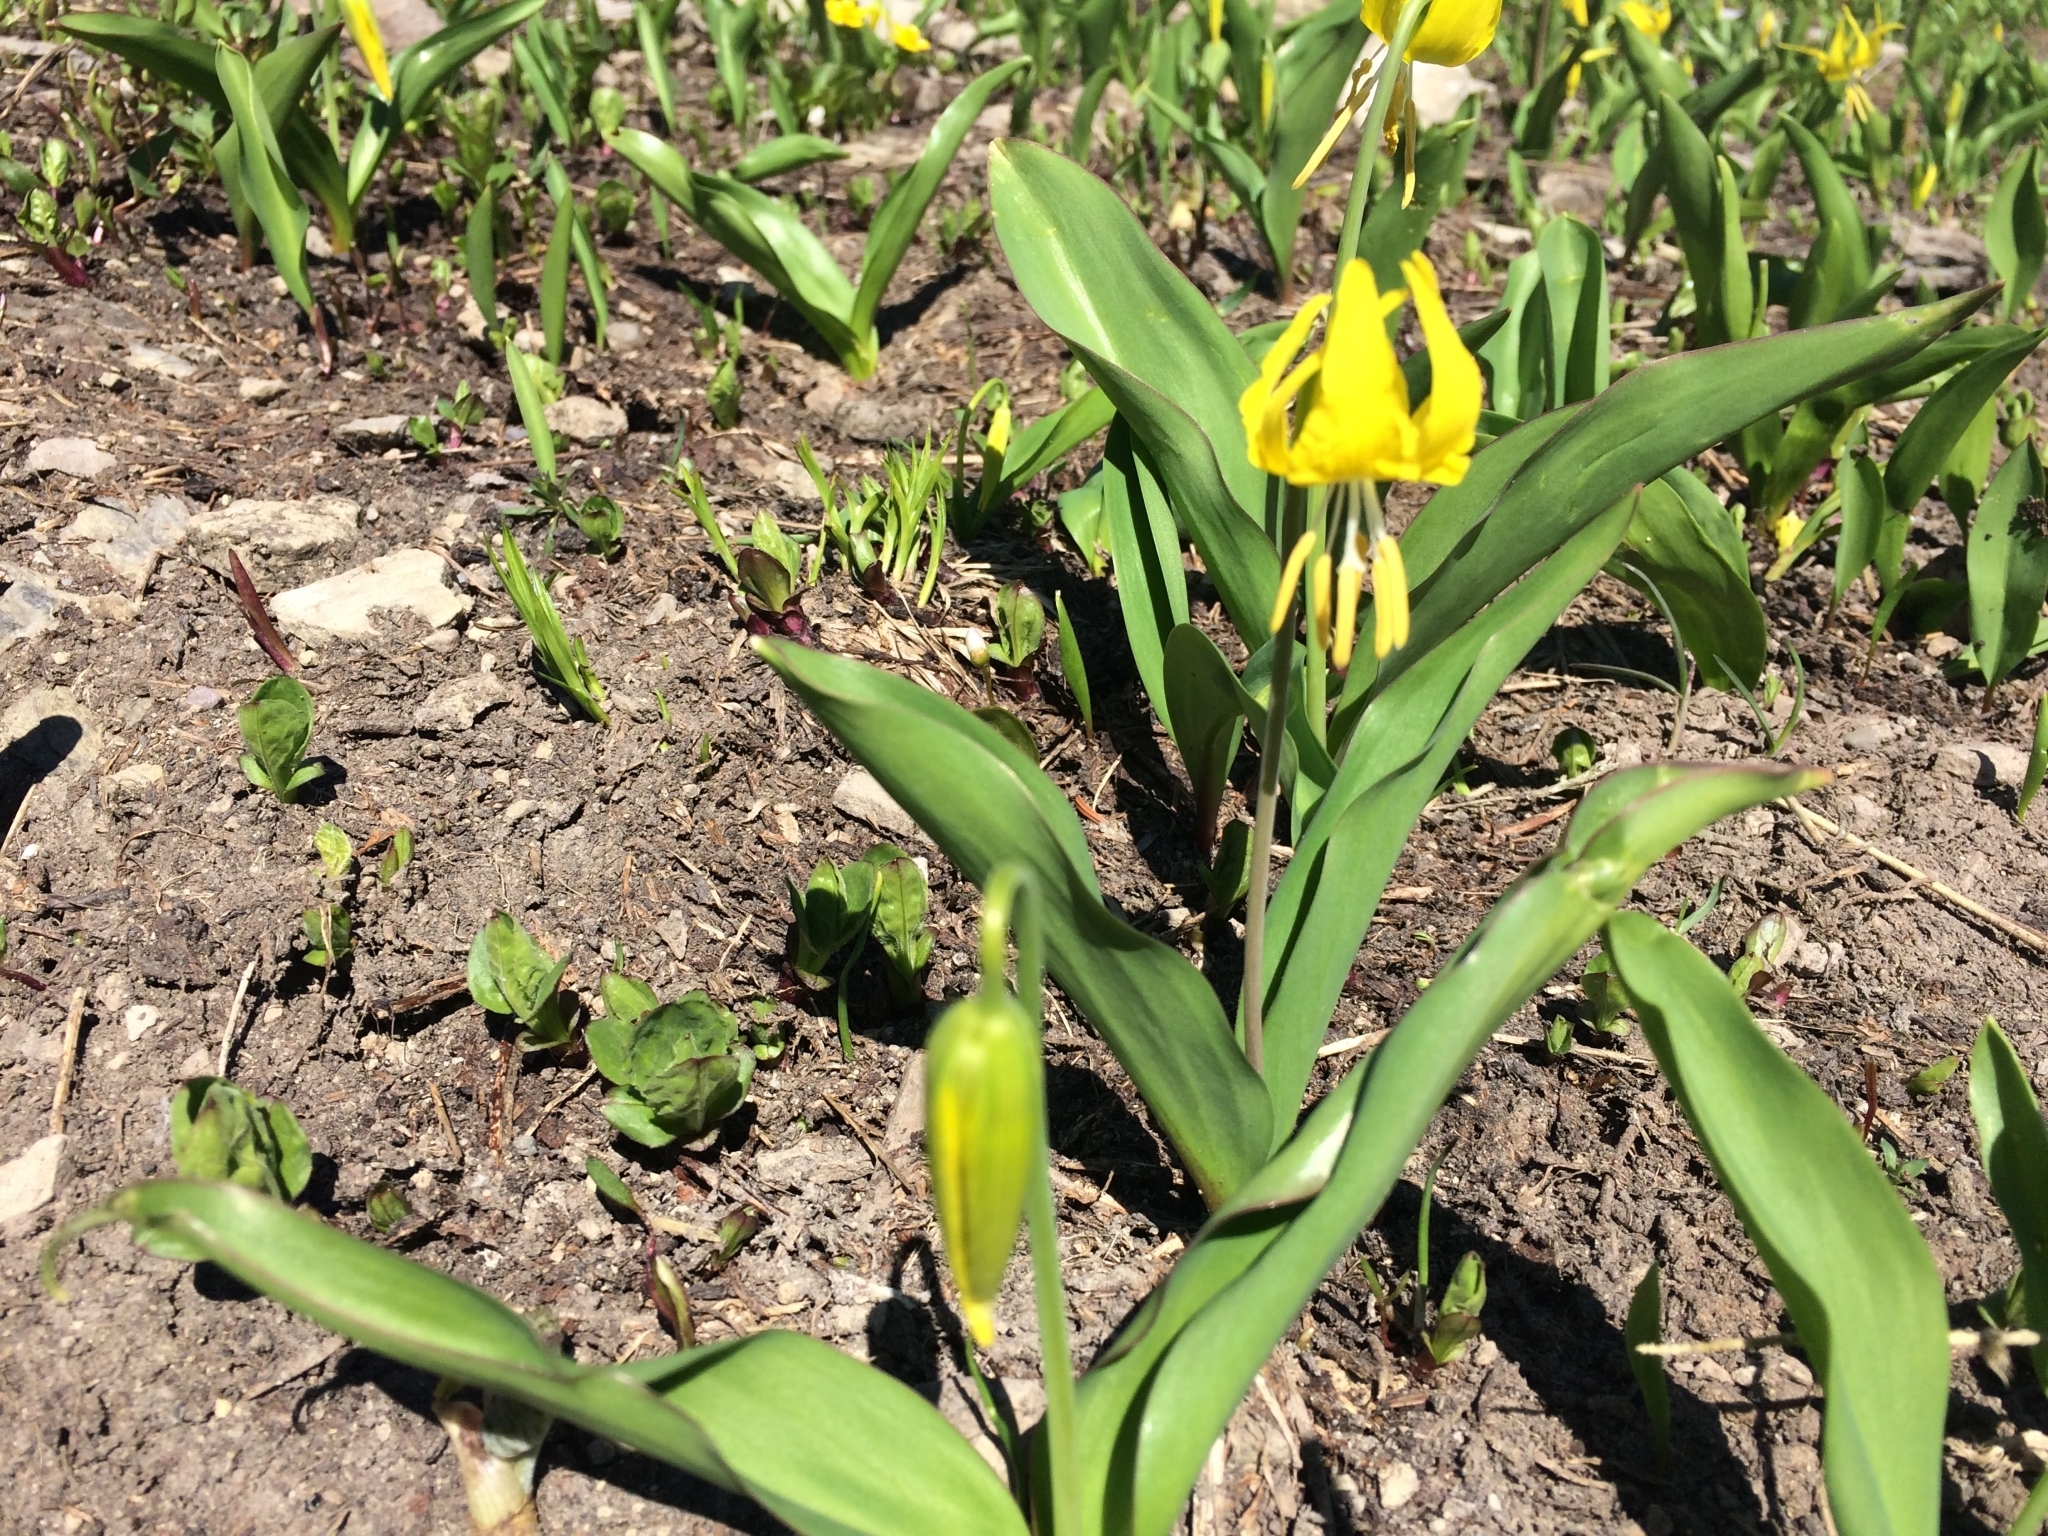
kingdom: Plantae
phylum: Tracheophyta
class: Liliopsida
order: Liliales
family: Liliaceae
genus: Erythronium
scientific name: Erythronium grandiflorum
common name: Avalanche-lily
